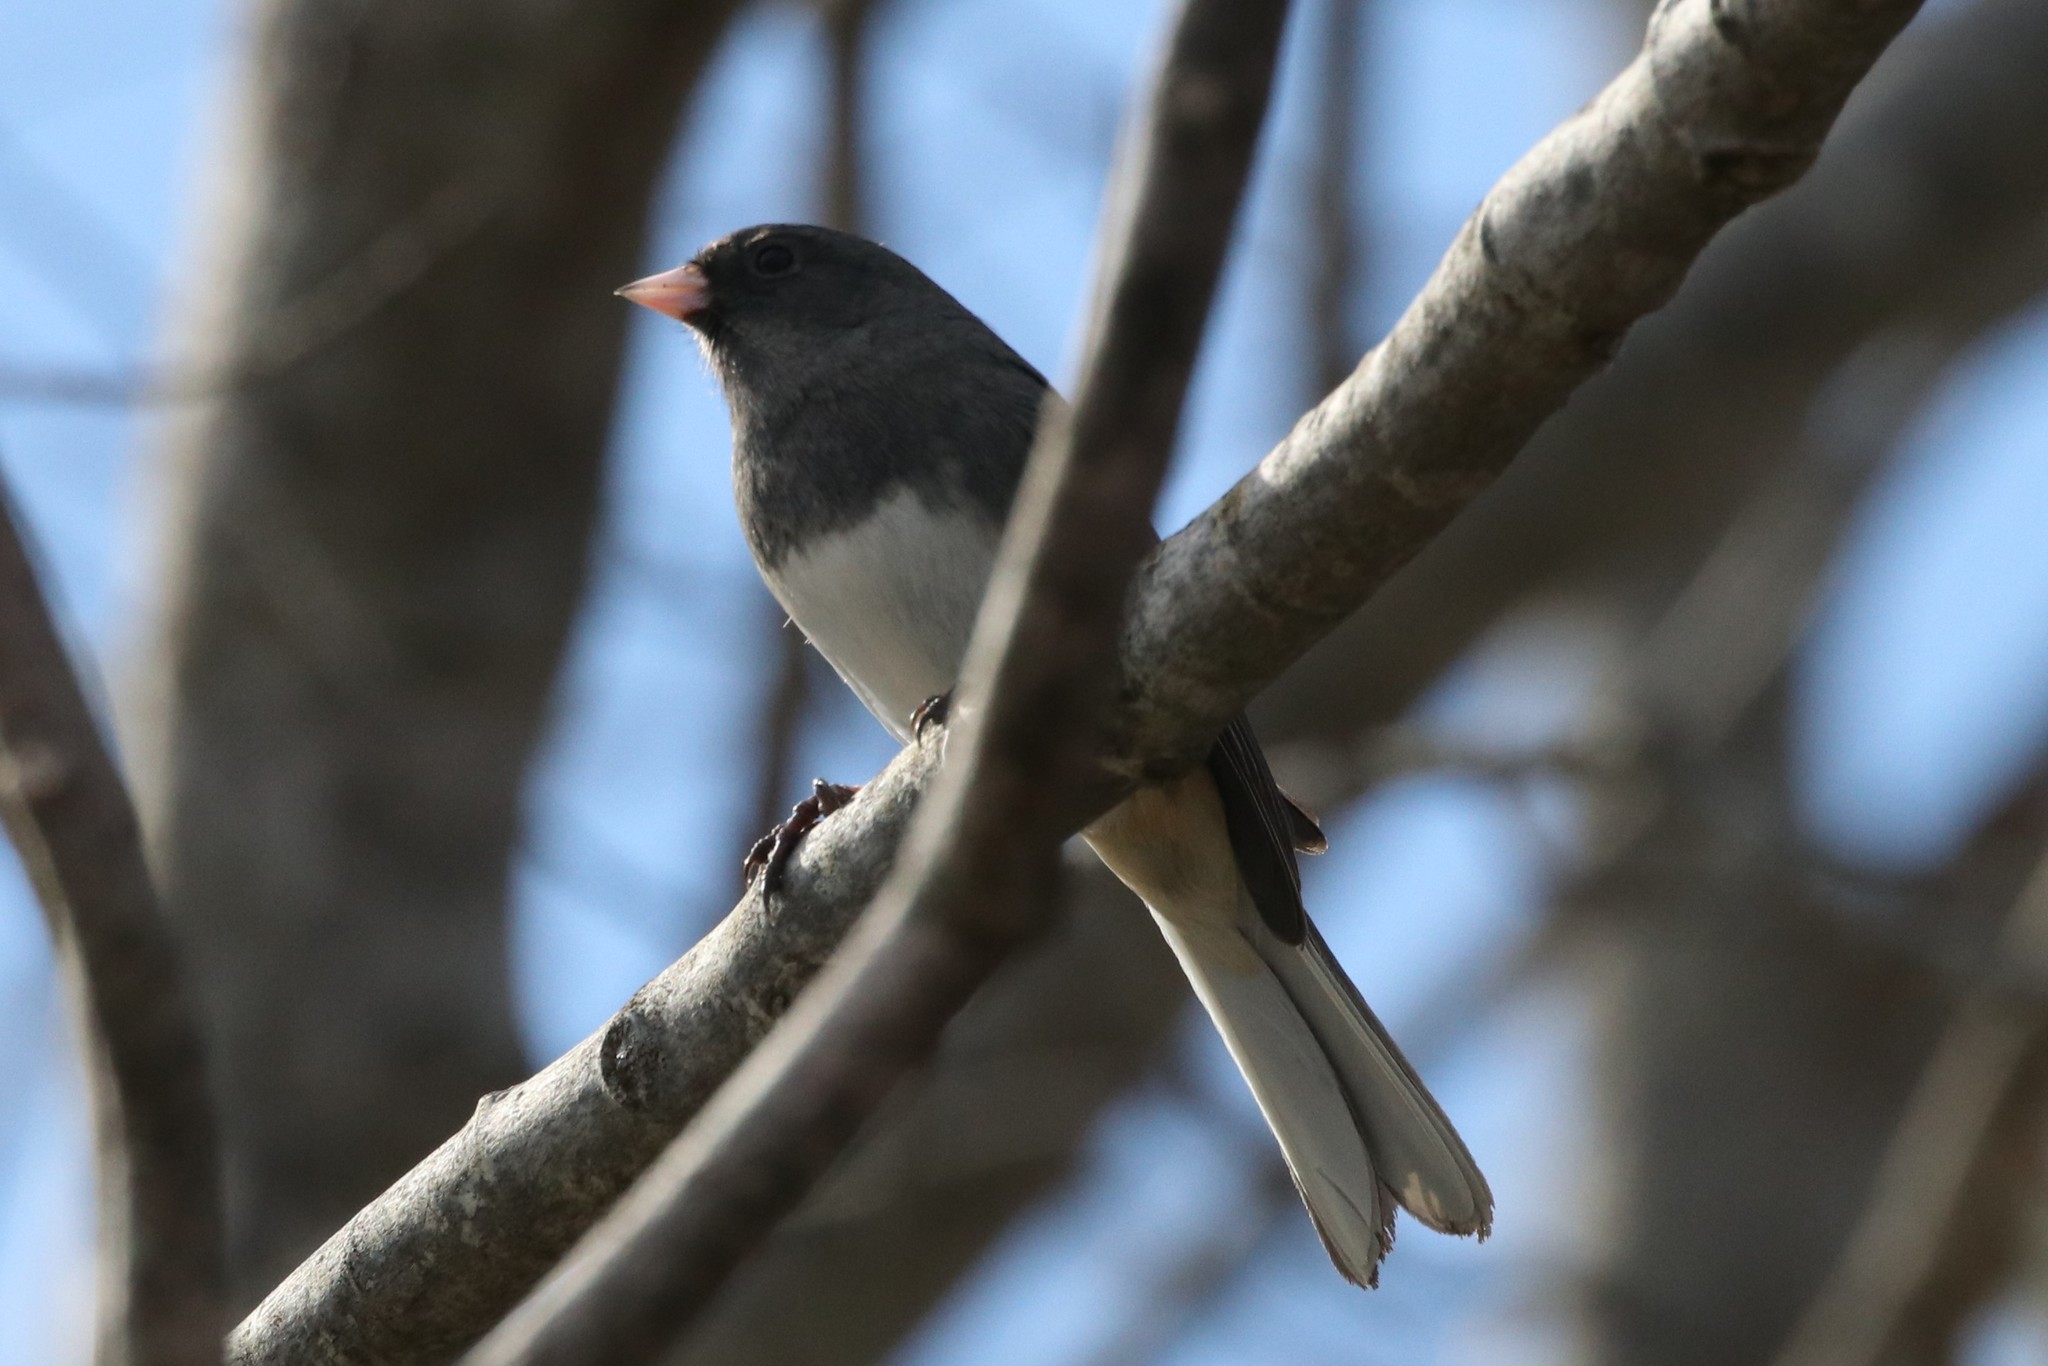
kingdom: Animalia
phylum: Chordata
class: Aves
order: Passeriformes
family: Passerellidae
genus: Junco
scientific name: Junco hyemalis
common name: Dark-eyed junco
